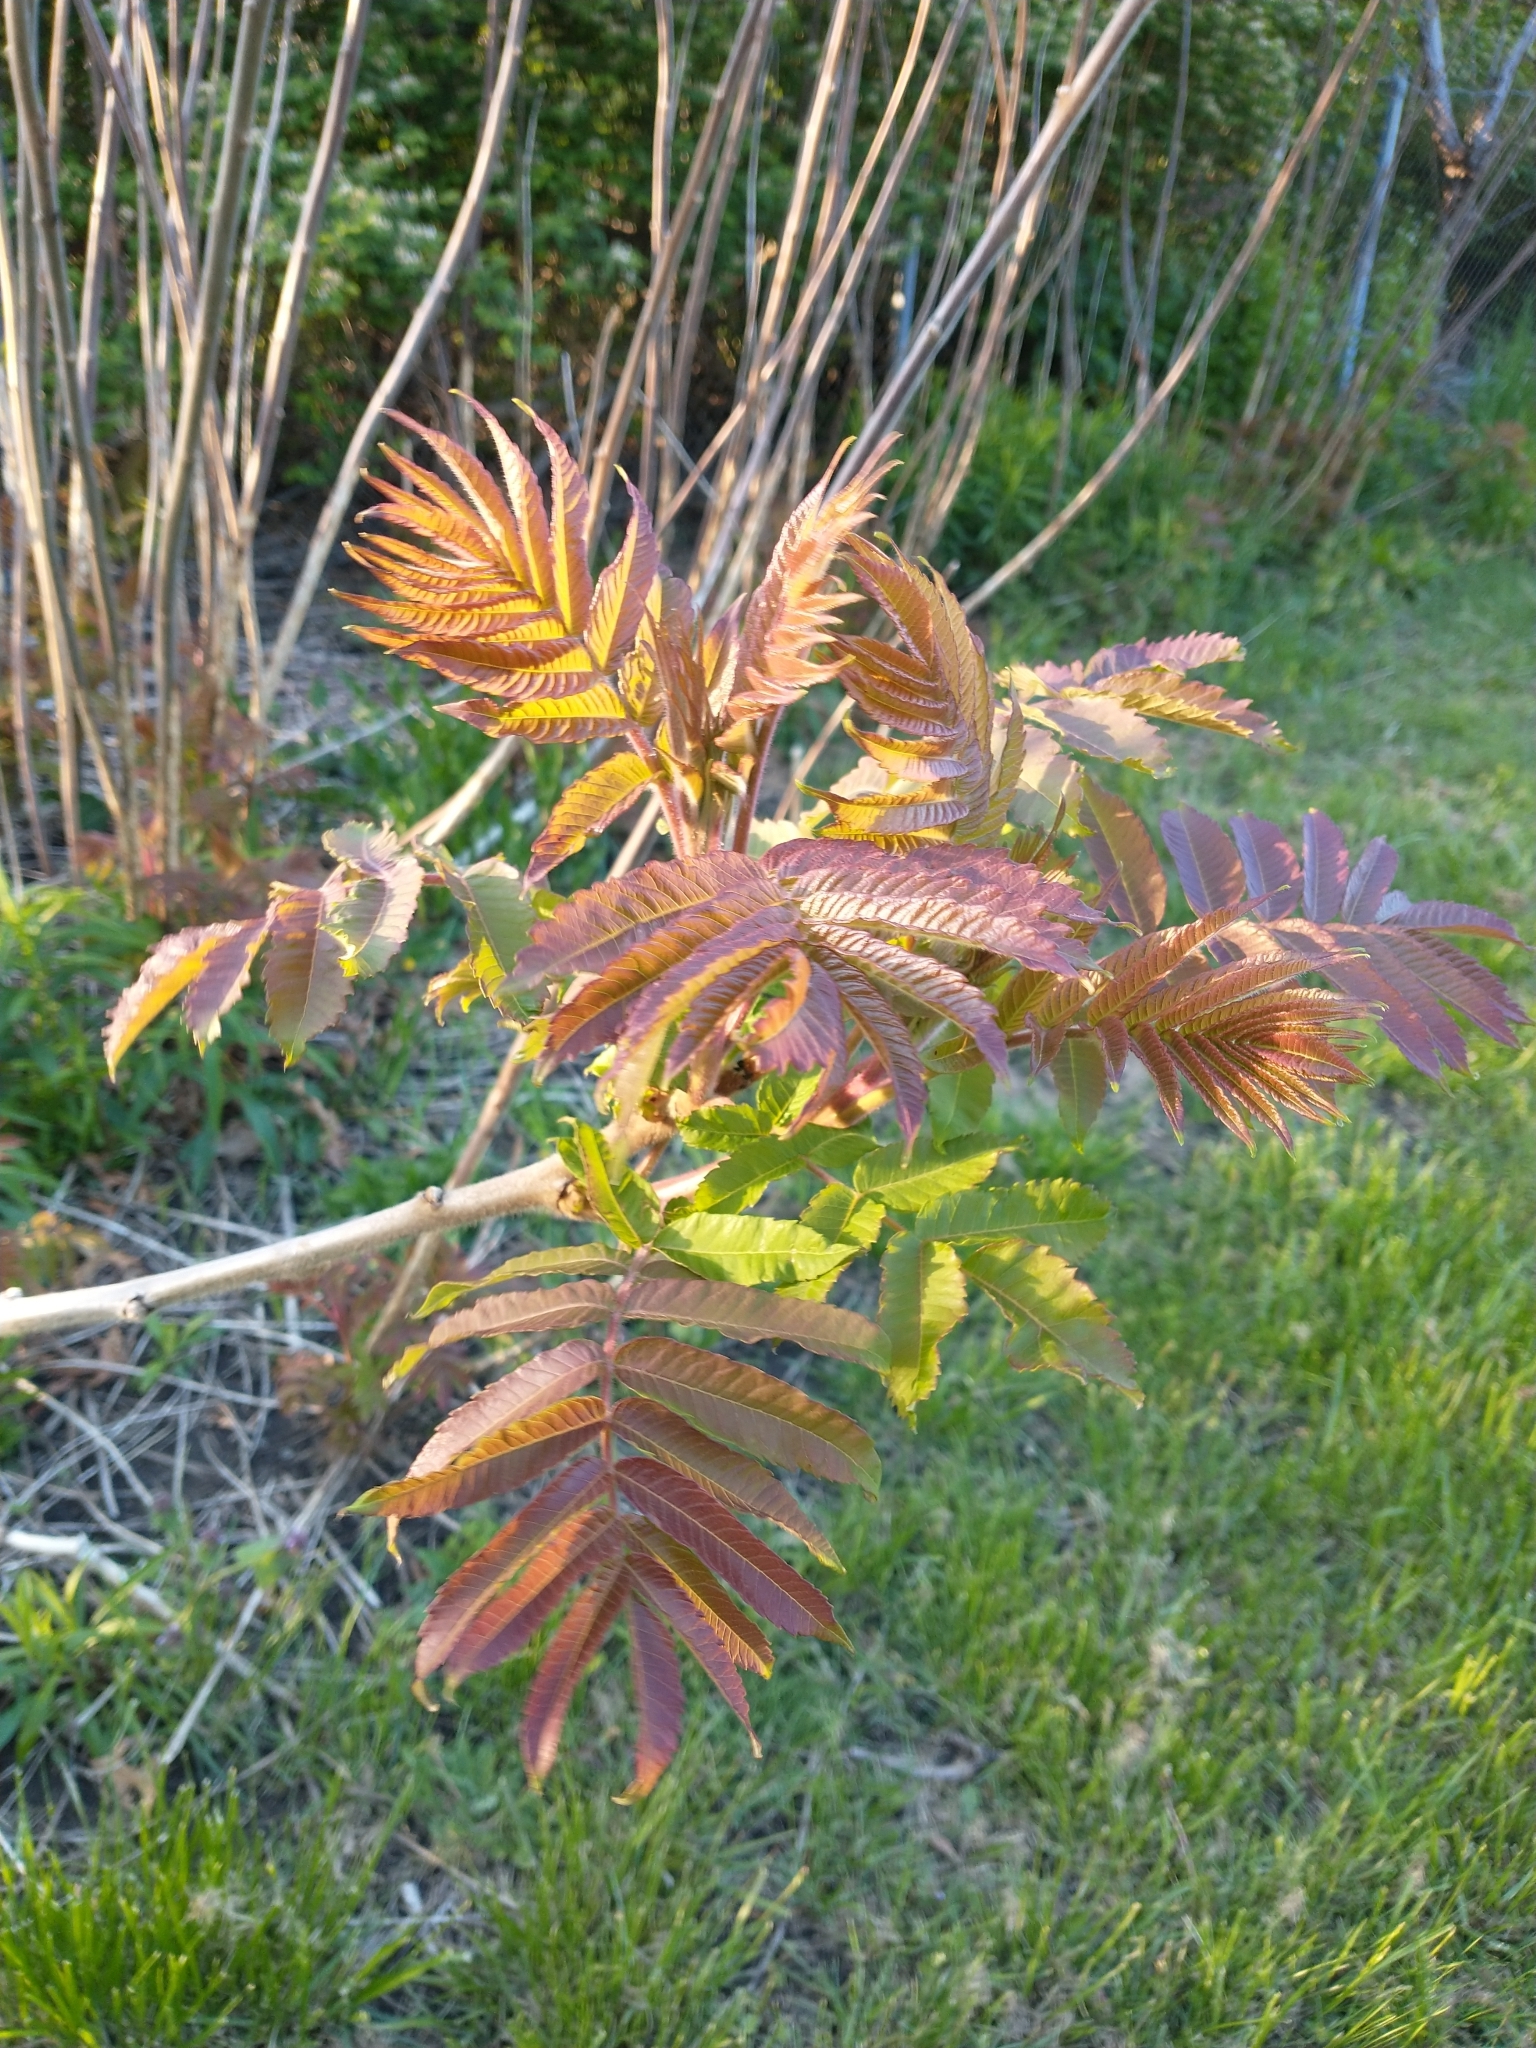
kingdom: Plantae
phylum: Tracheophyta
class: Magnoliopsida
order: Sapindales
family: Anacardiaceae
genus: Rhus
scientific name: Rhus typhina
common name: Staghorn sumac
